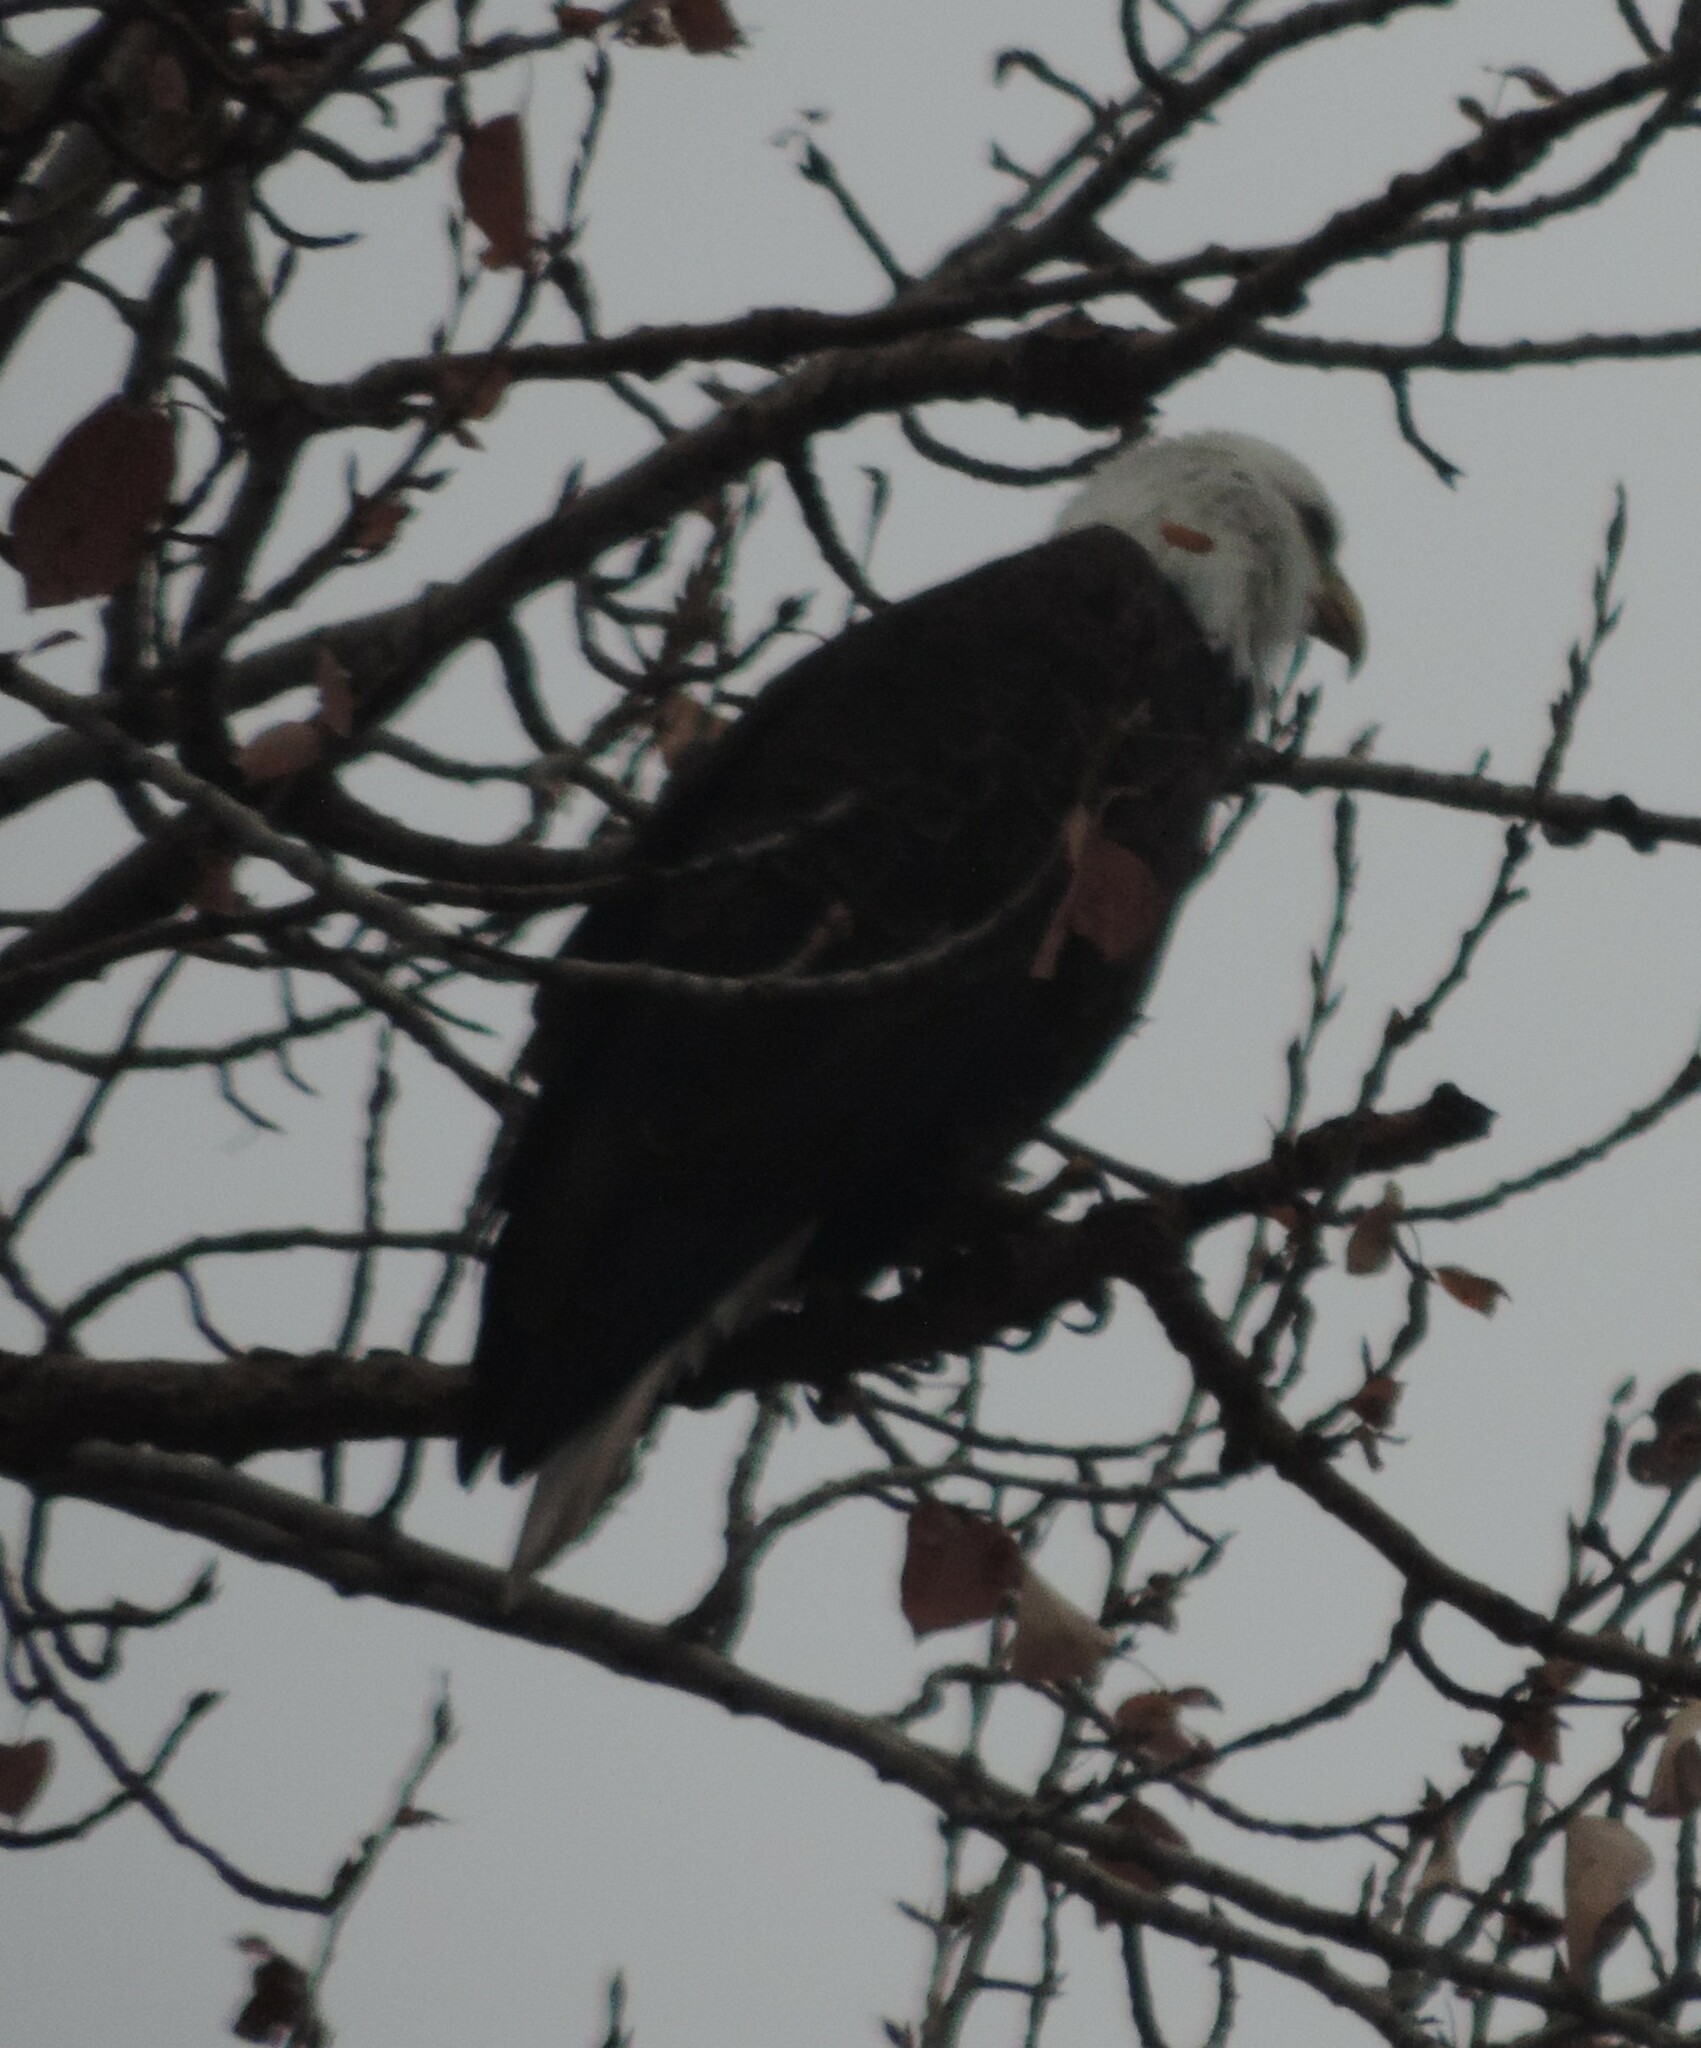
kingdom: Animalia
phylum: Chordata
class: Aves
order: Accipitriformes
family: Accipitridae
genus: Haliaeetus
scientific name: Haliaeetus leucocephalus
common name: Bald eagle
